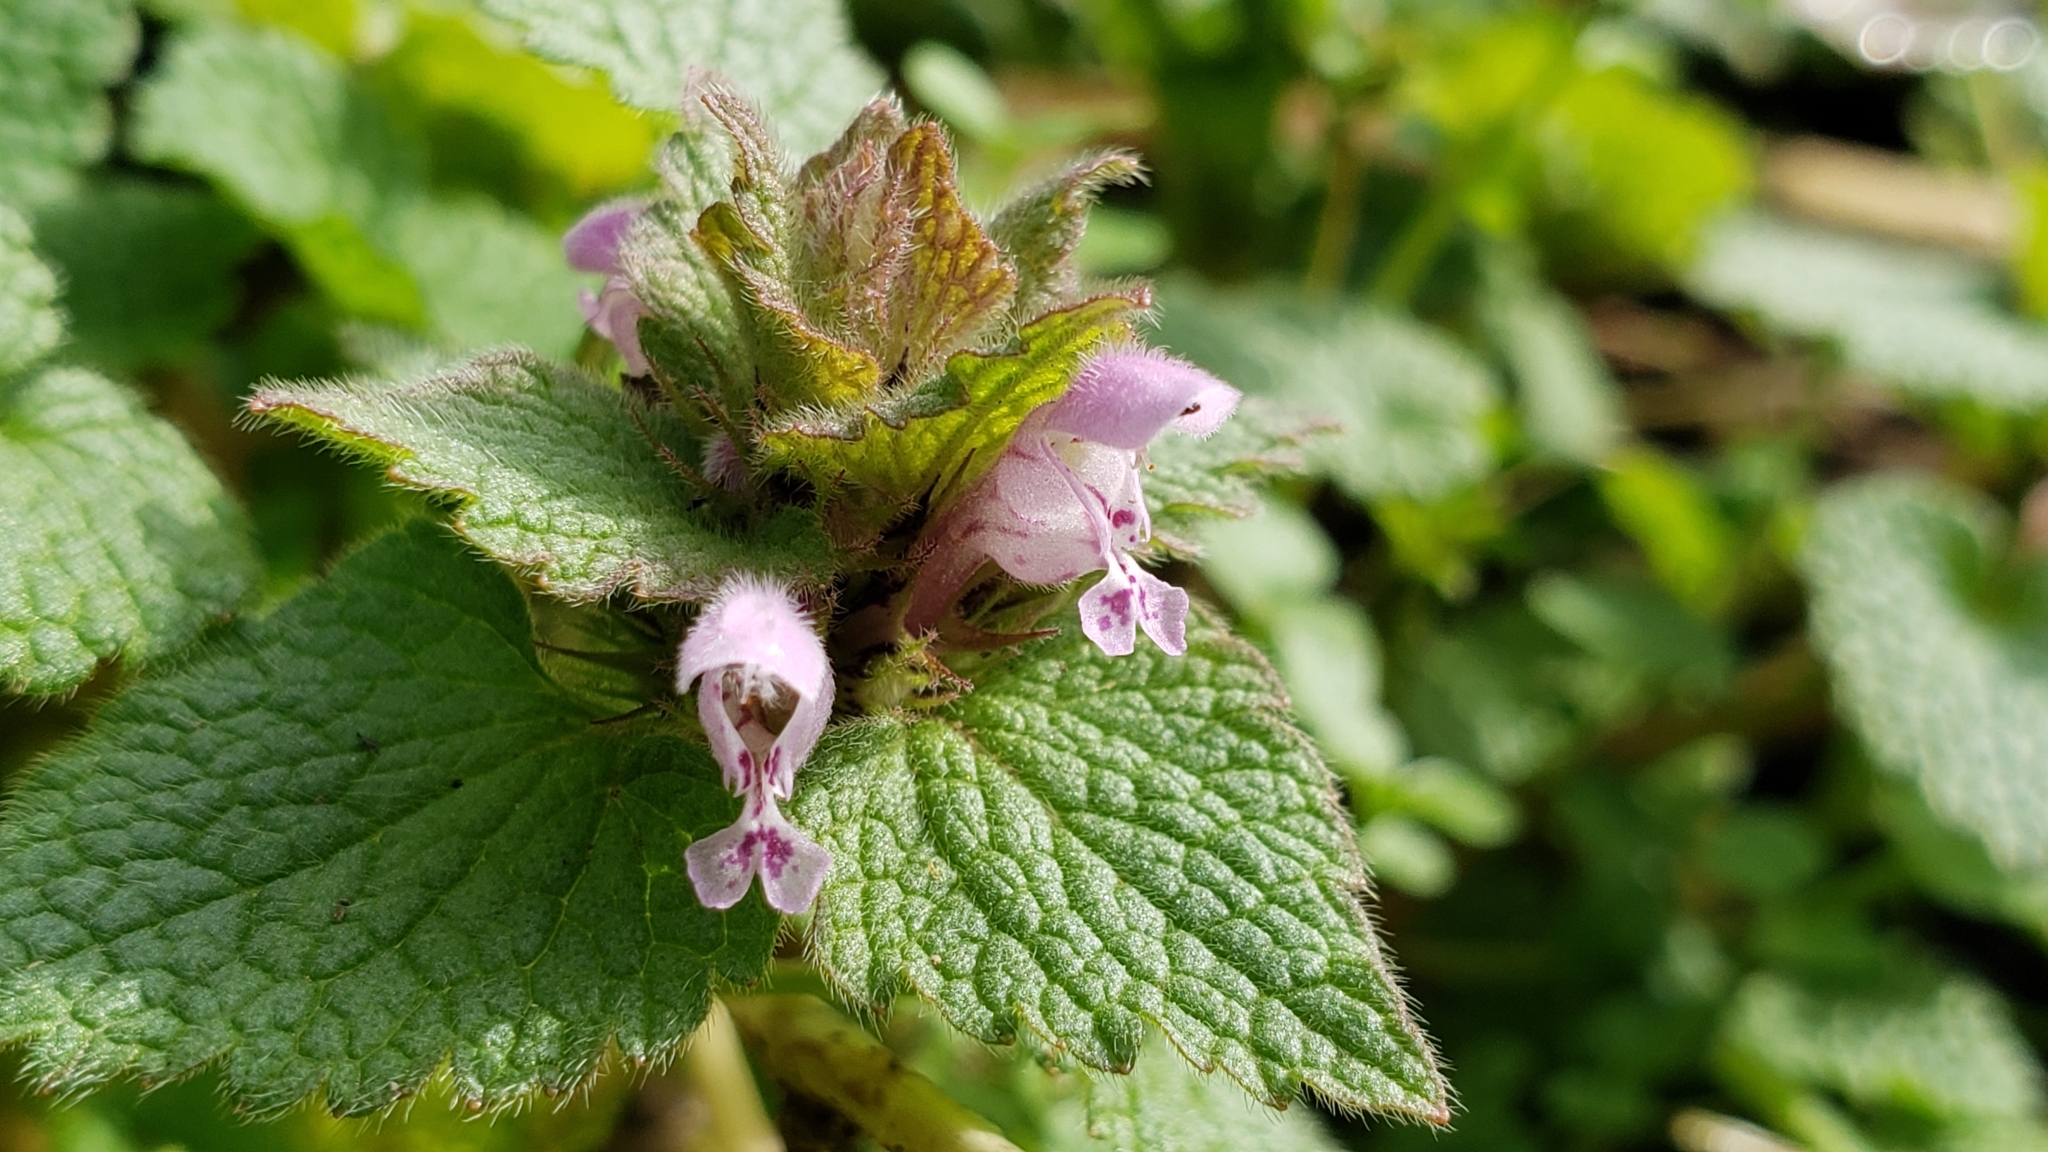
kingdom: Plantae
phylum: Tracheophyta
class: Magnoliopsida
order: Lamiales
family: Lamiaceae
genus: Lamium
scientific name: Lamium purpureum
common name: Red dead-nettle
